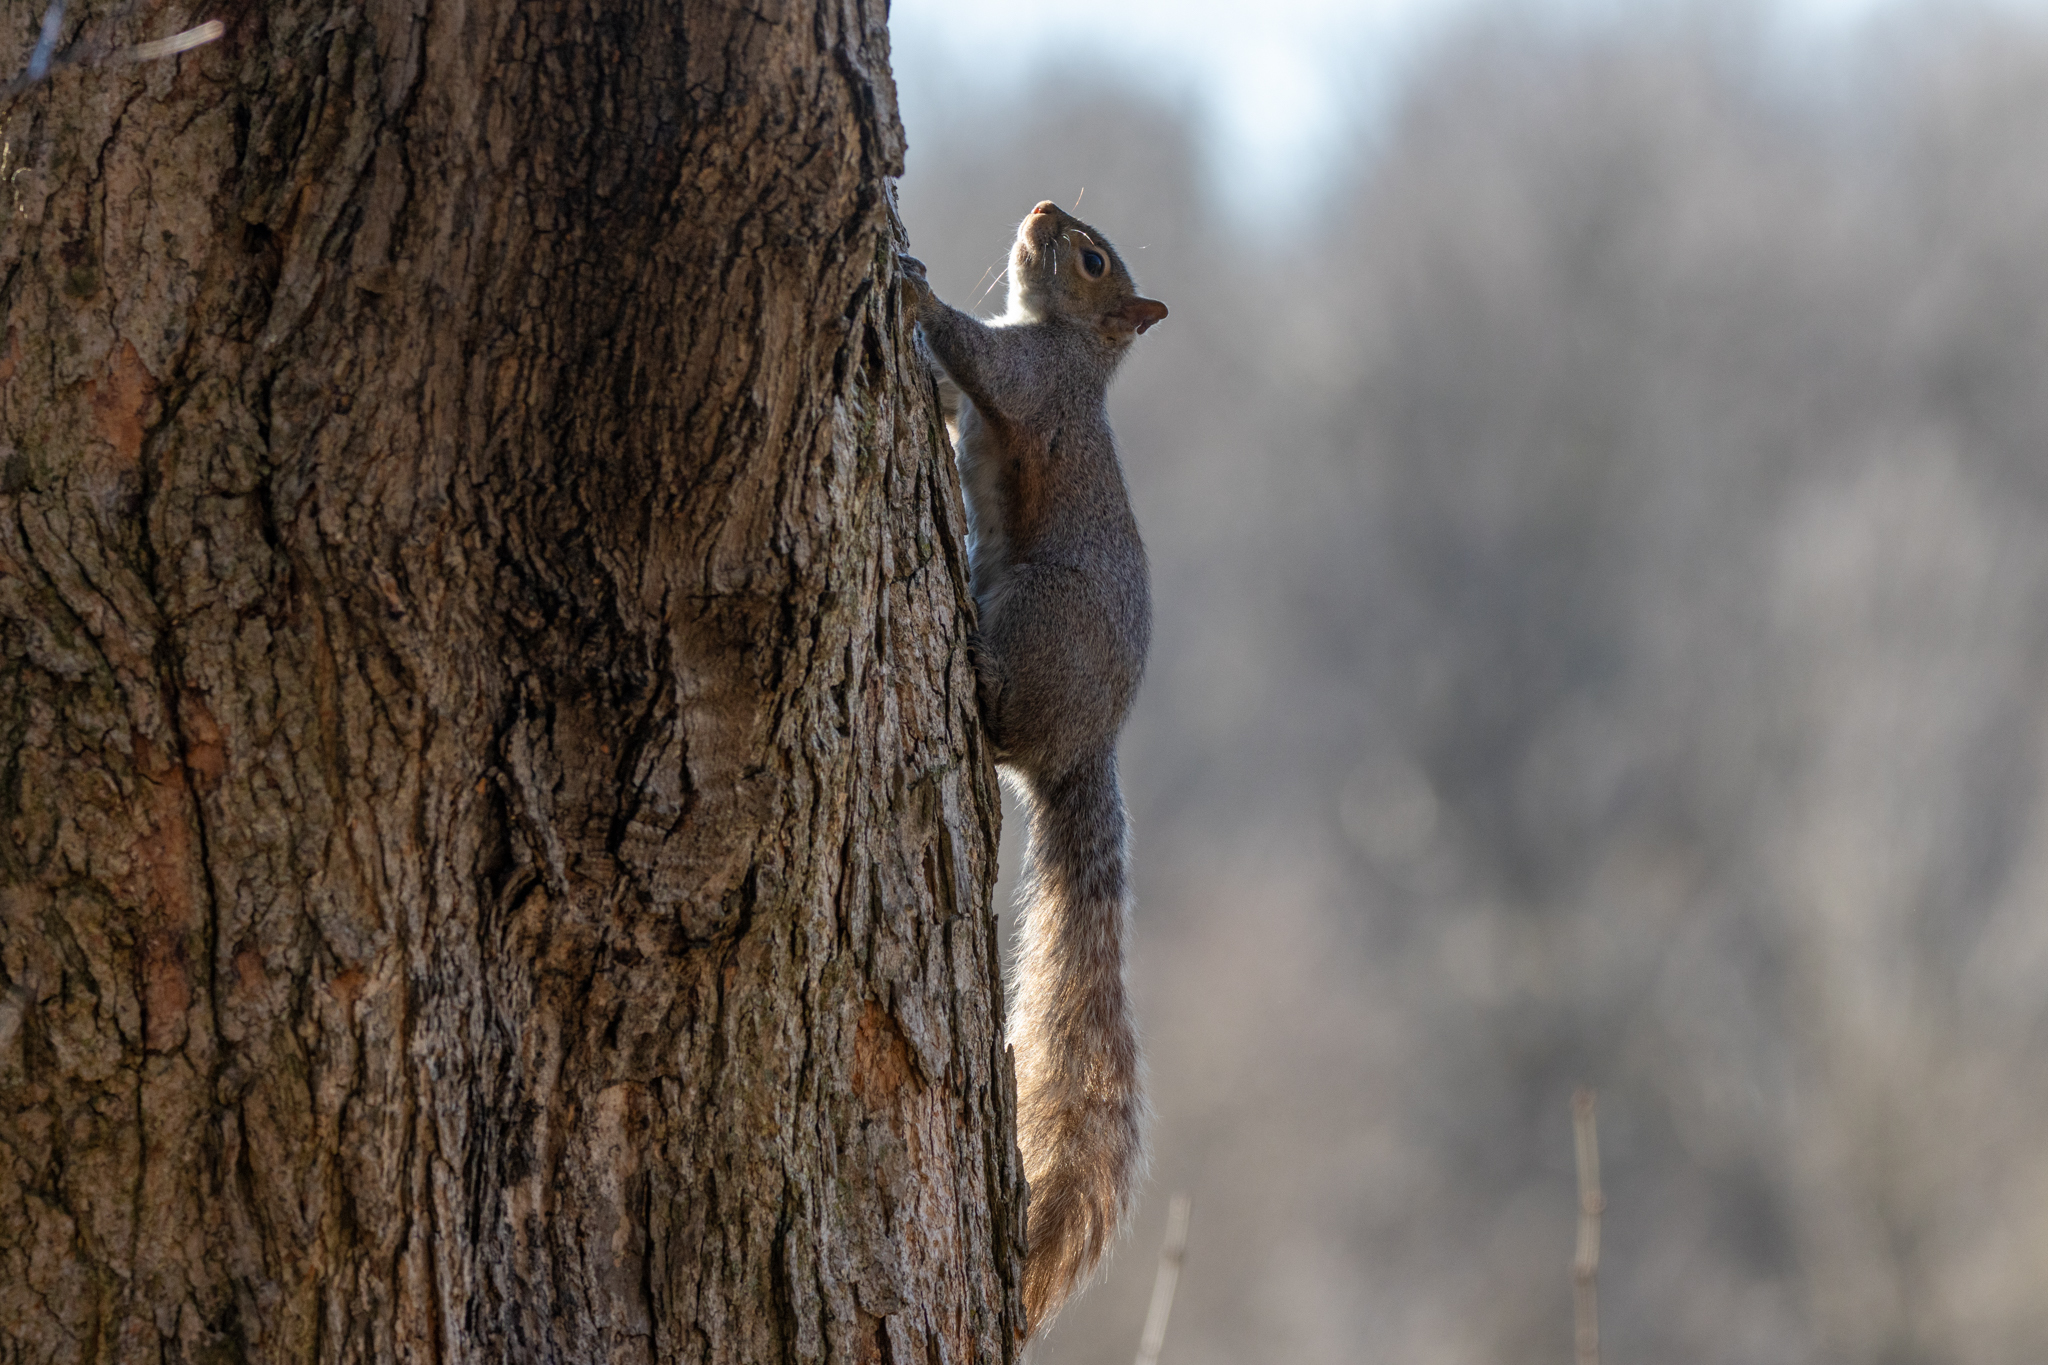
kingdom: Animalia
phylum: Chordata
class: Mammalia
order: Rodentia
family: Sciuridae
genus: Sciurus
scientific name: Sciurus carolinensis
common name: Eastern gray squirrel
